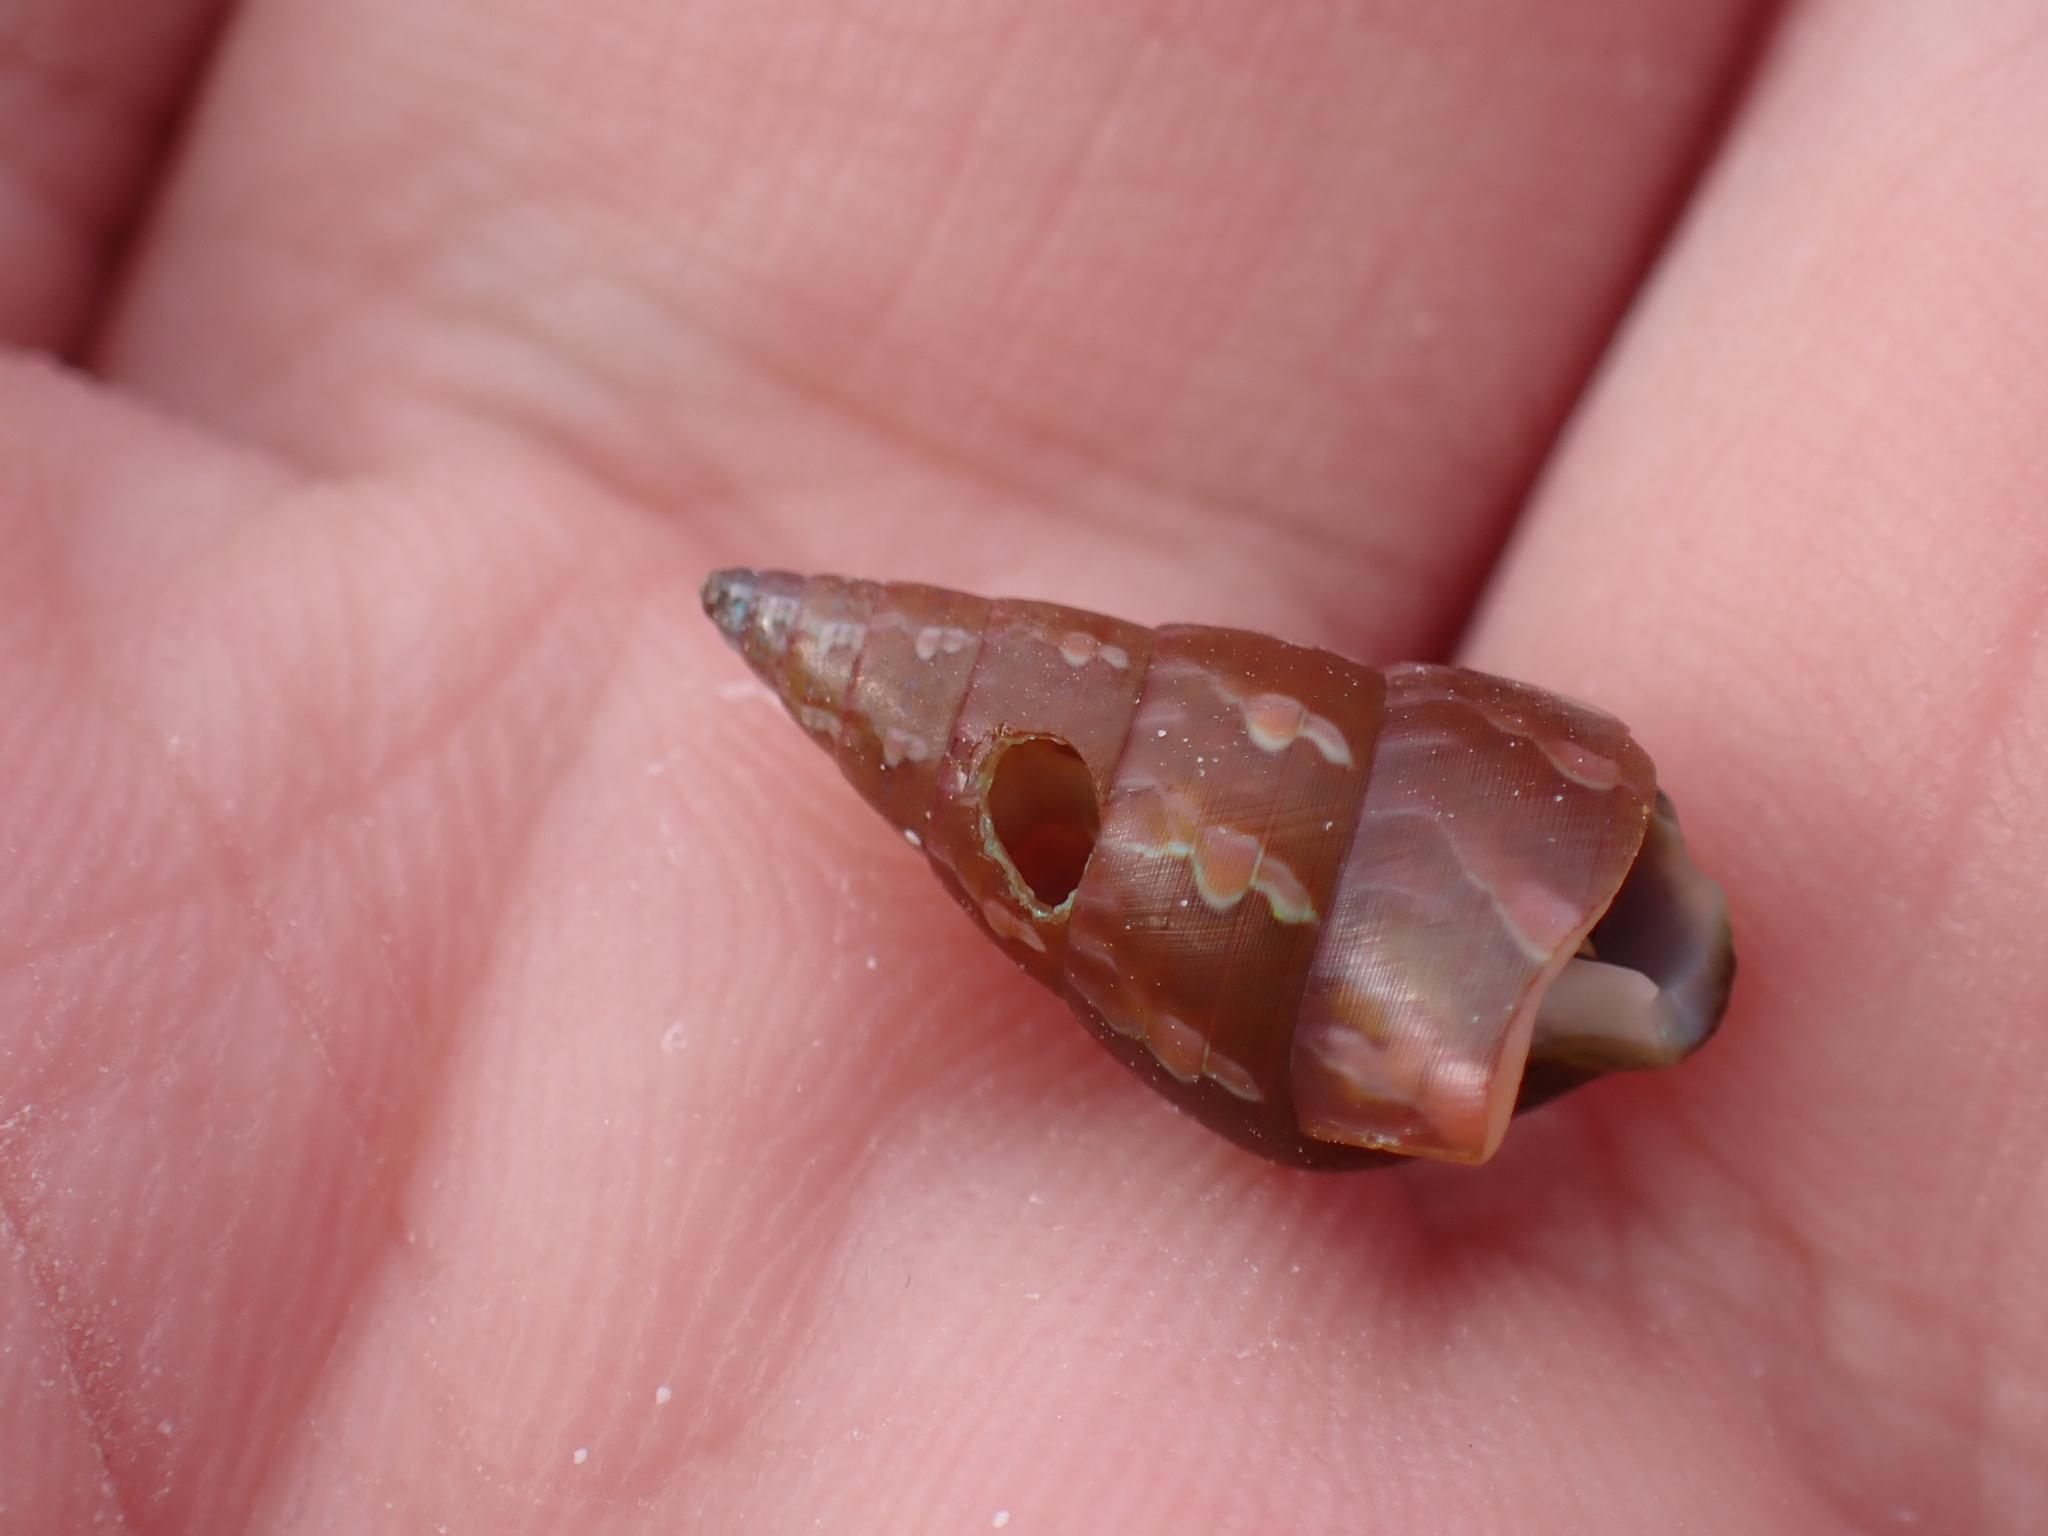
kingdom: Animalia
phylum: Mollusca
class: Gastropoda
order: Trochida
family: Trochidae
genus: Phasianotrochus
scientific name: Phasianotrochus eximius
